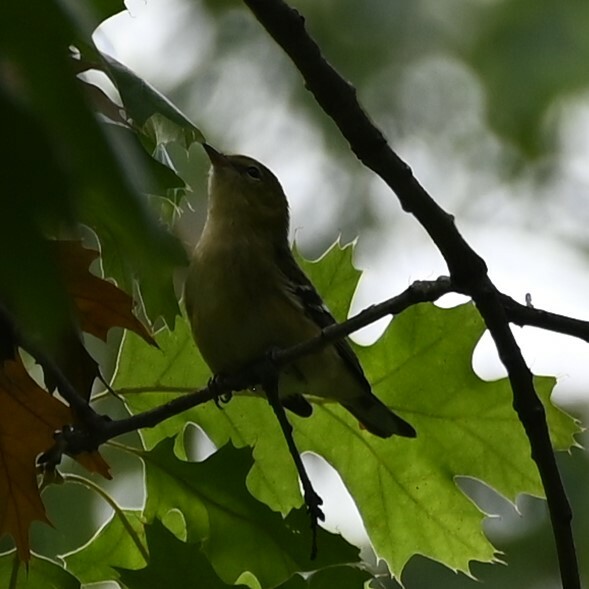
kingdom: Animalia
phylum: Chordata
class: Aves
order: Passeriformes
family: Parulidae
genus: Setophaga
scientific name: Setophaga castanea
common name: Bay-breasted warbler
